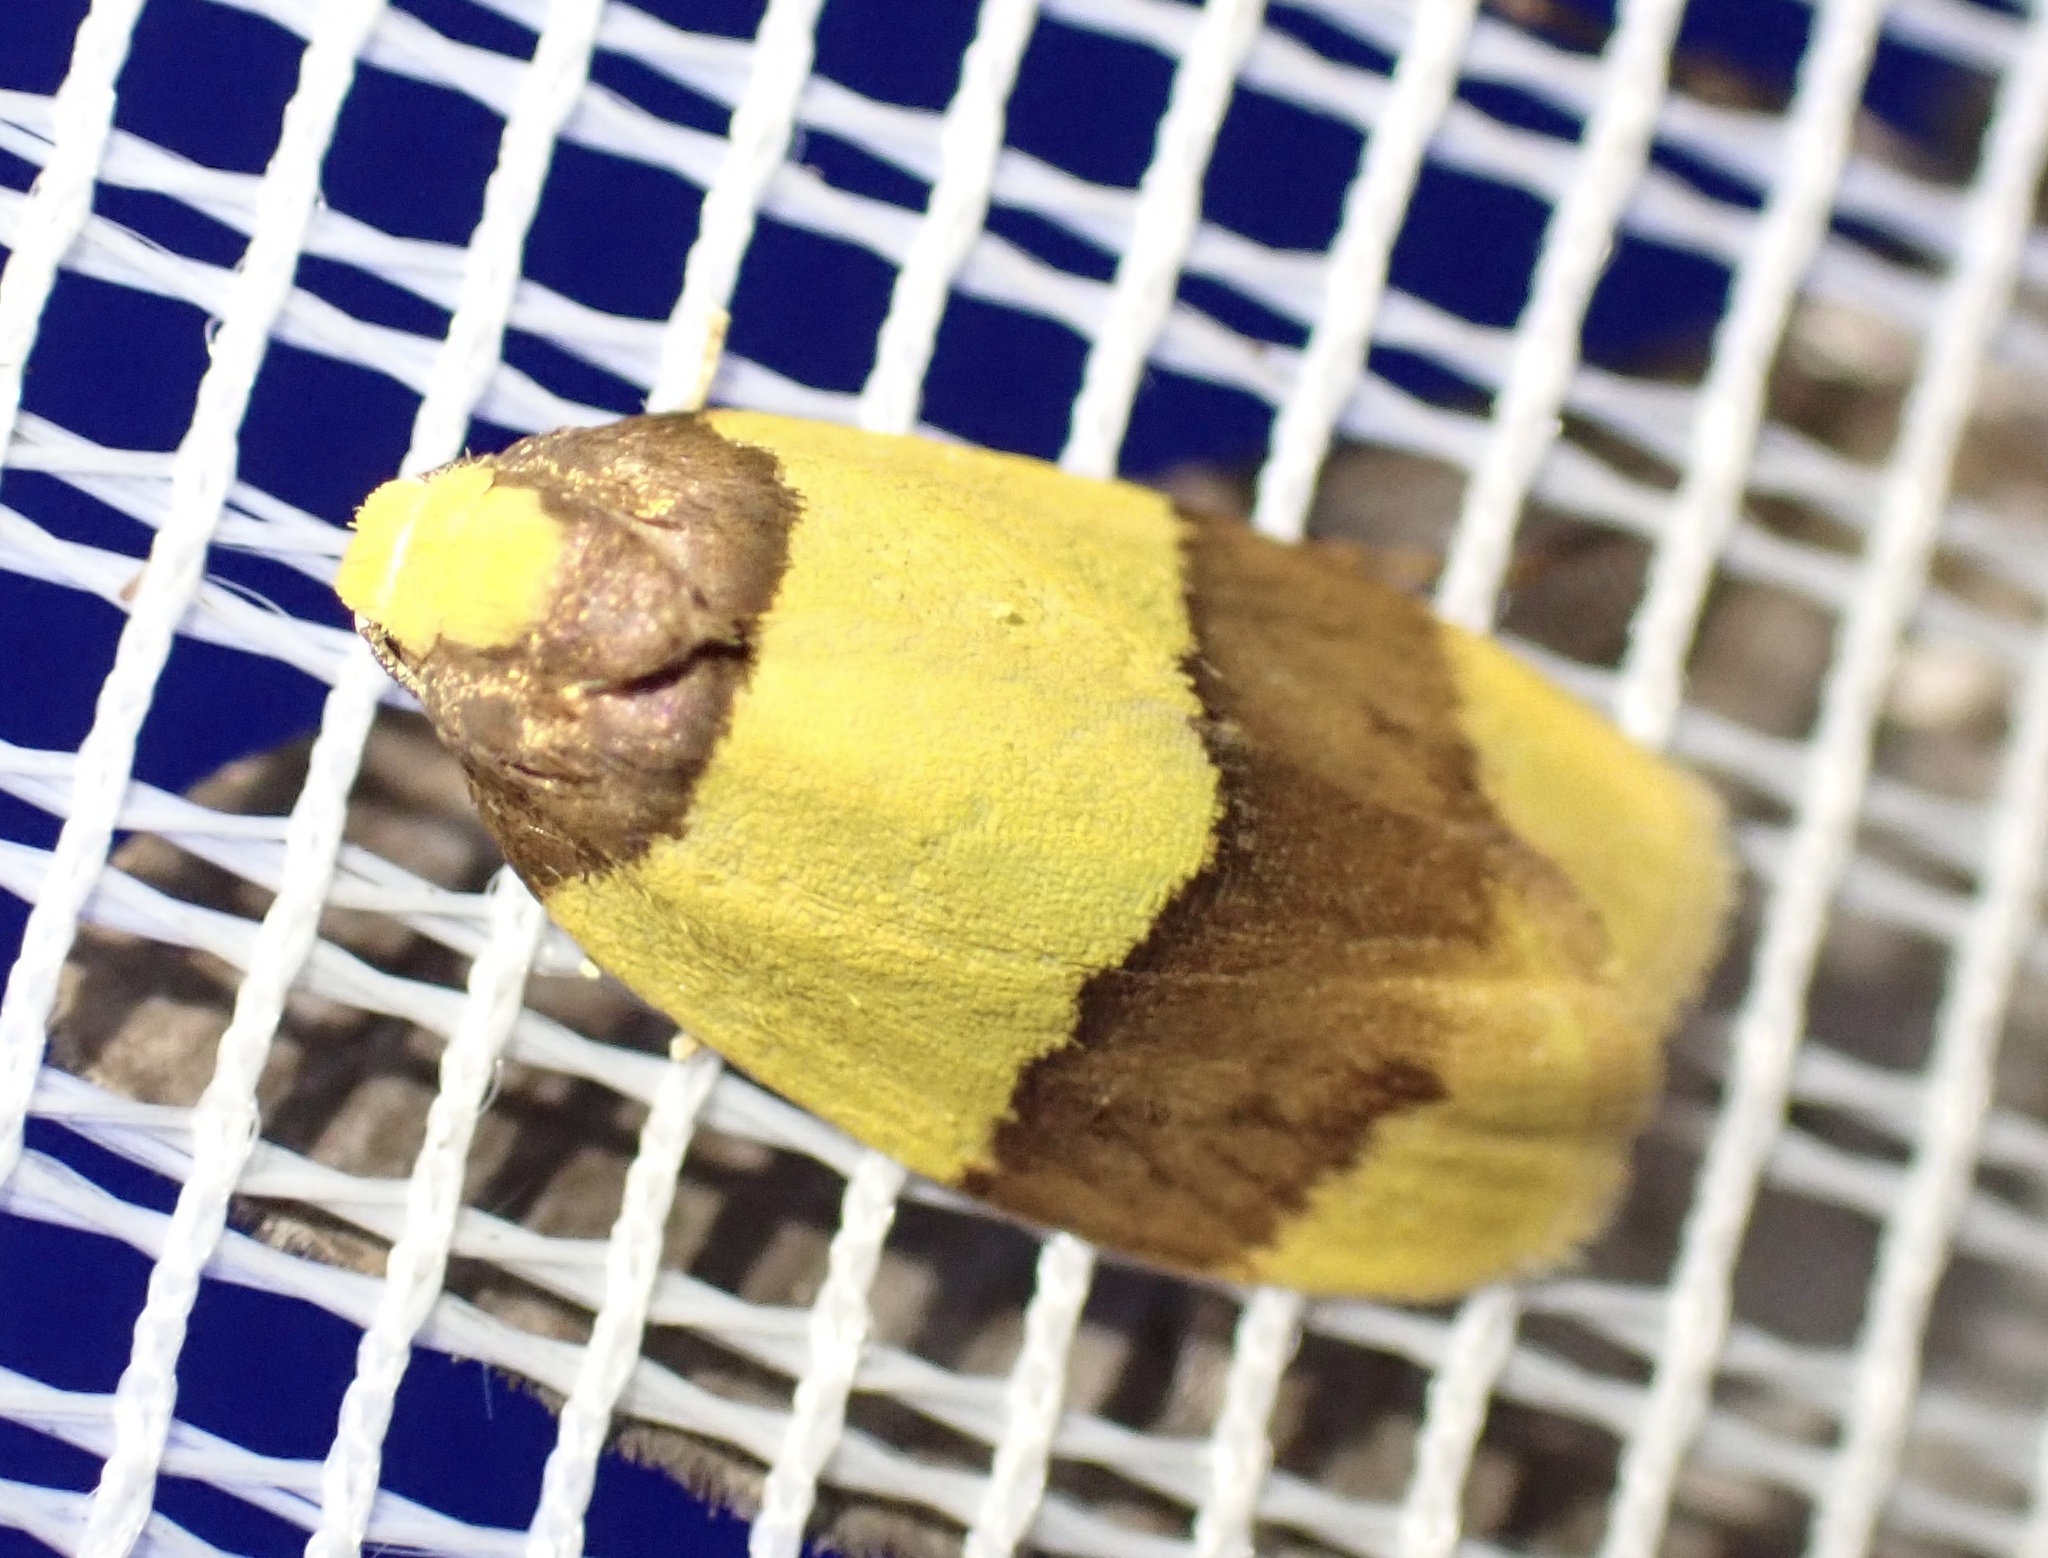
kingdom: Animalia
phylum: Arthropoda
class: Insecta
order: Lepidoptera
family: Erebidae
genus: Heterallactis
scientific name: Heterallactis euchrysa
